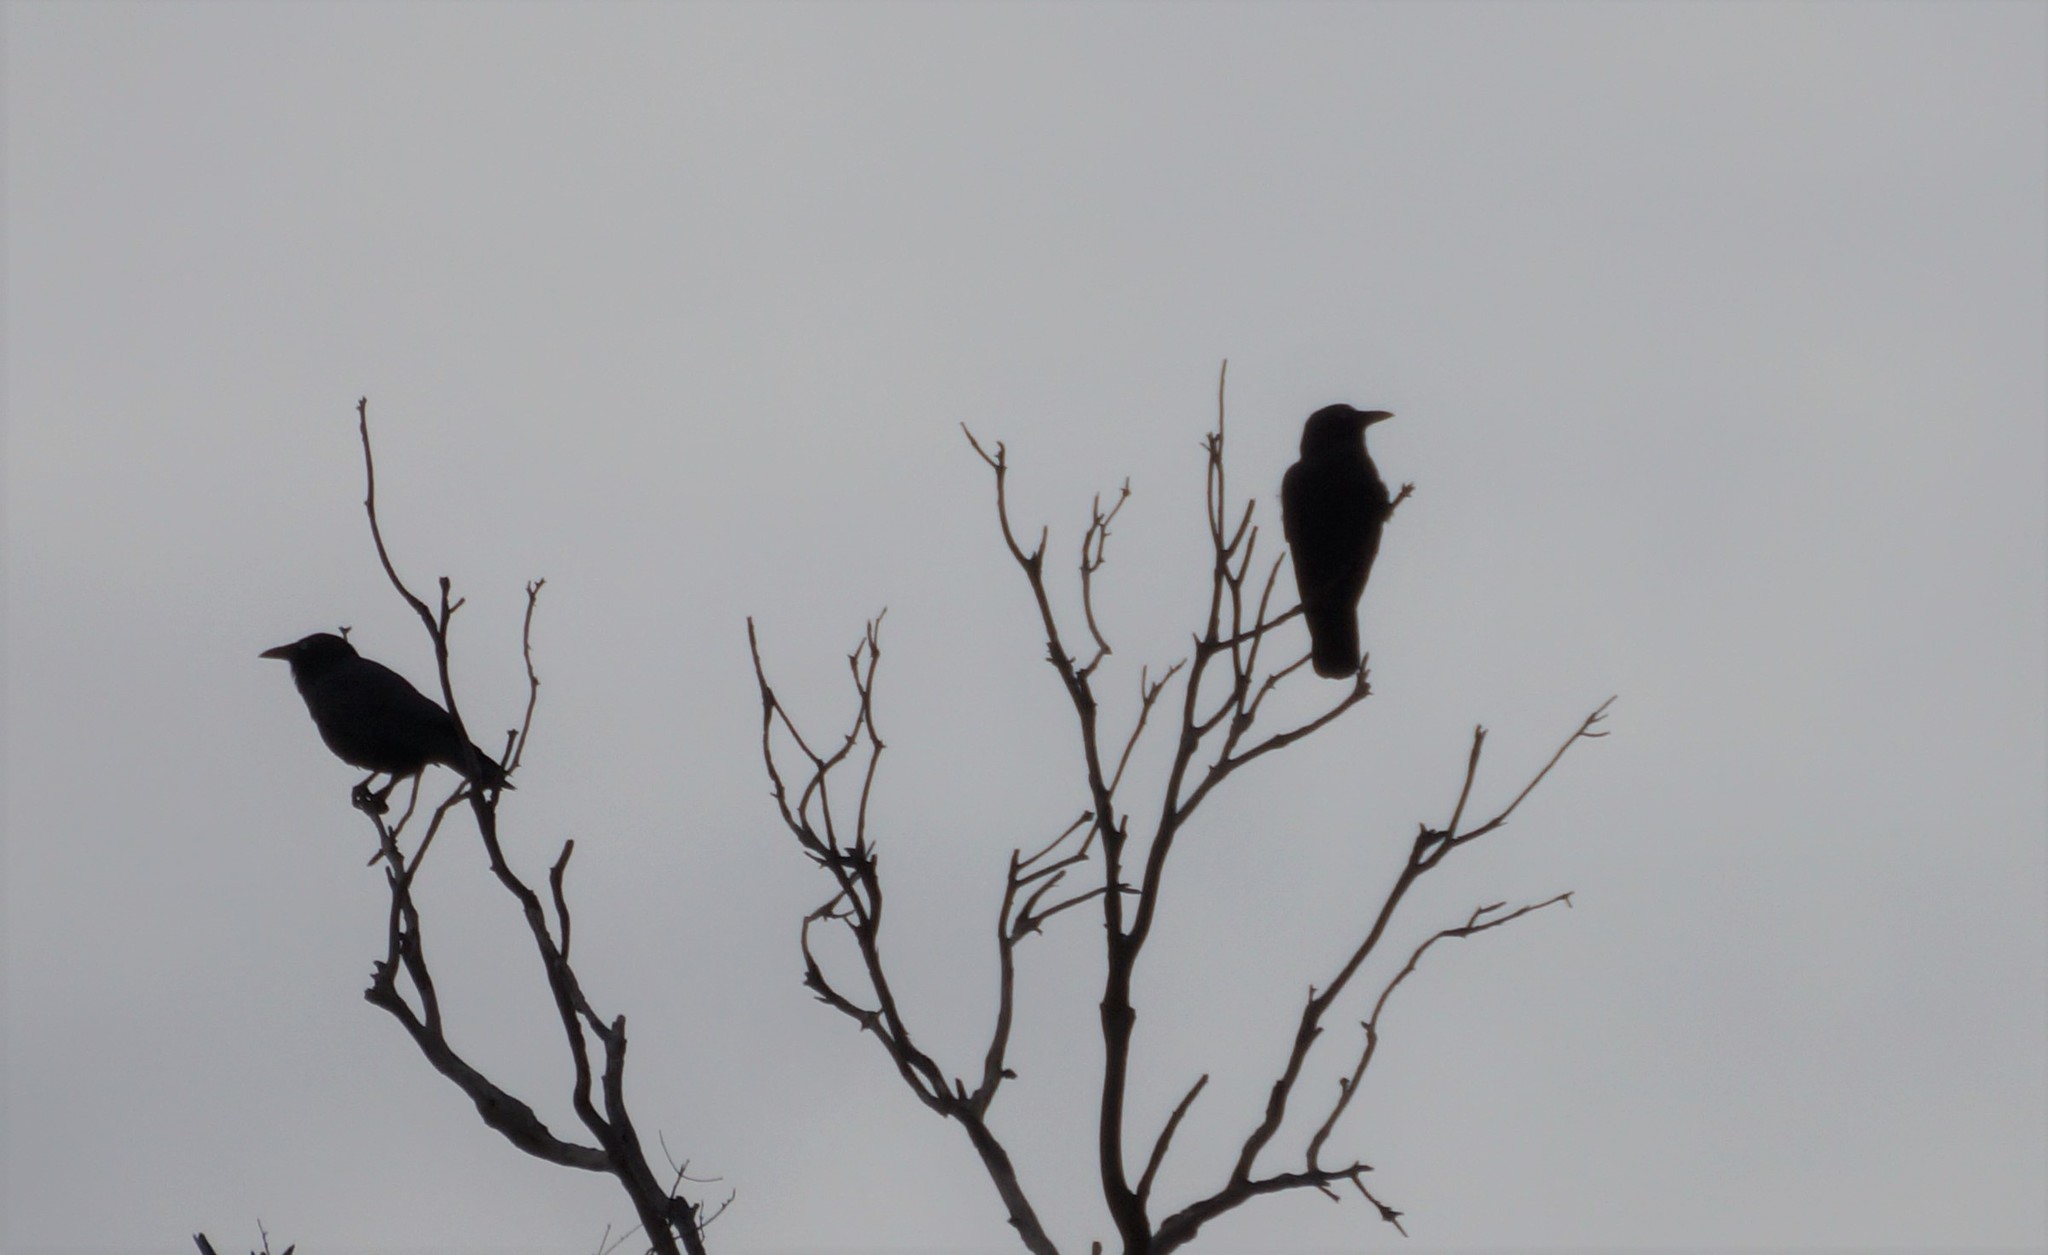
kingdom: Animalia
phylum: Chordata
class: Aves
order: Passeriformes
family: Corvidae
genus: Corvus
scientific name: Corvus mellori
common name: Little raven
